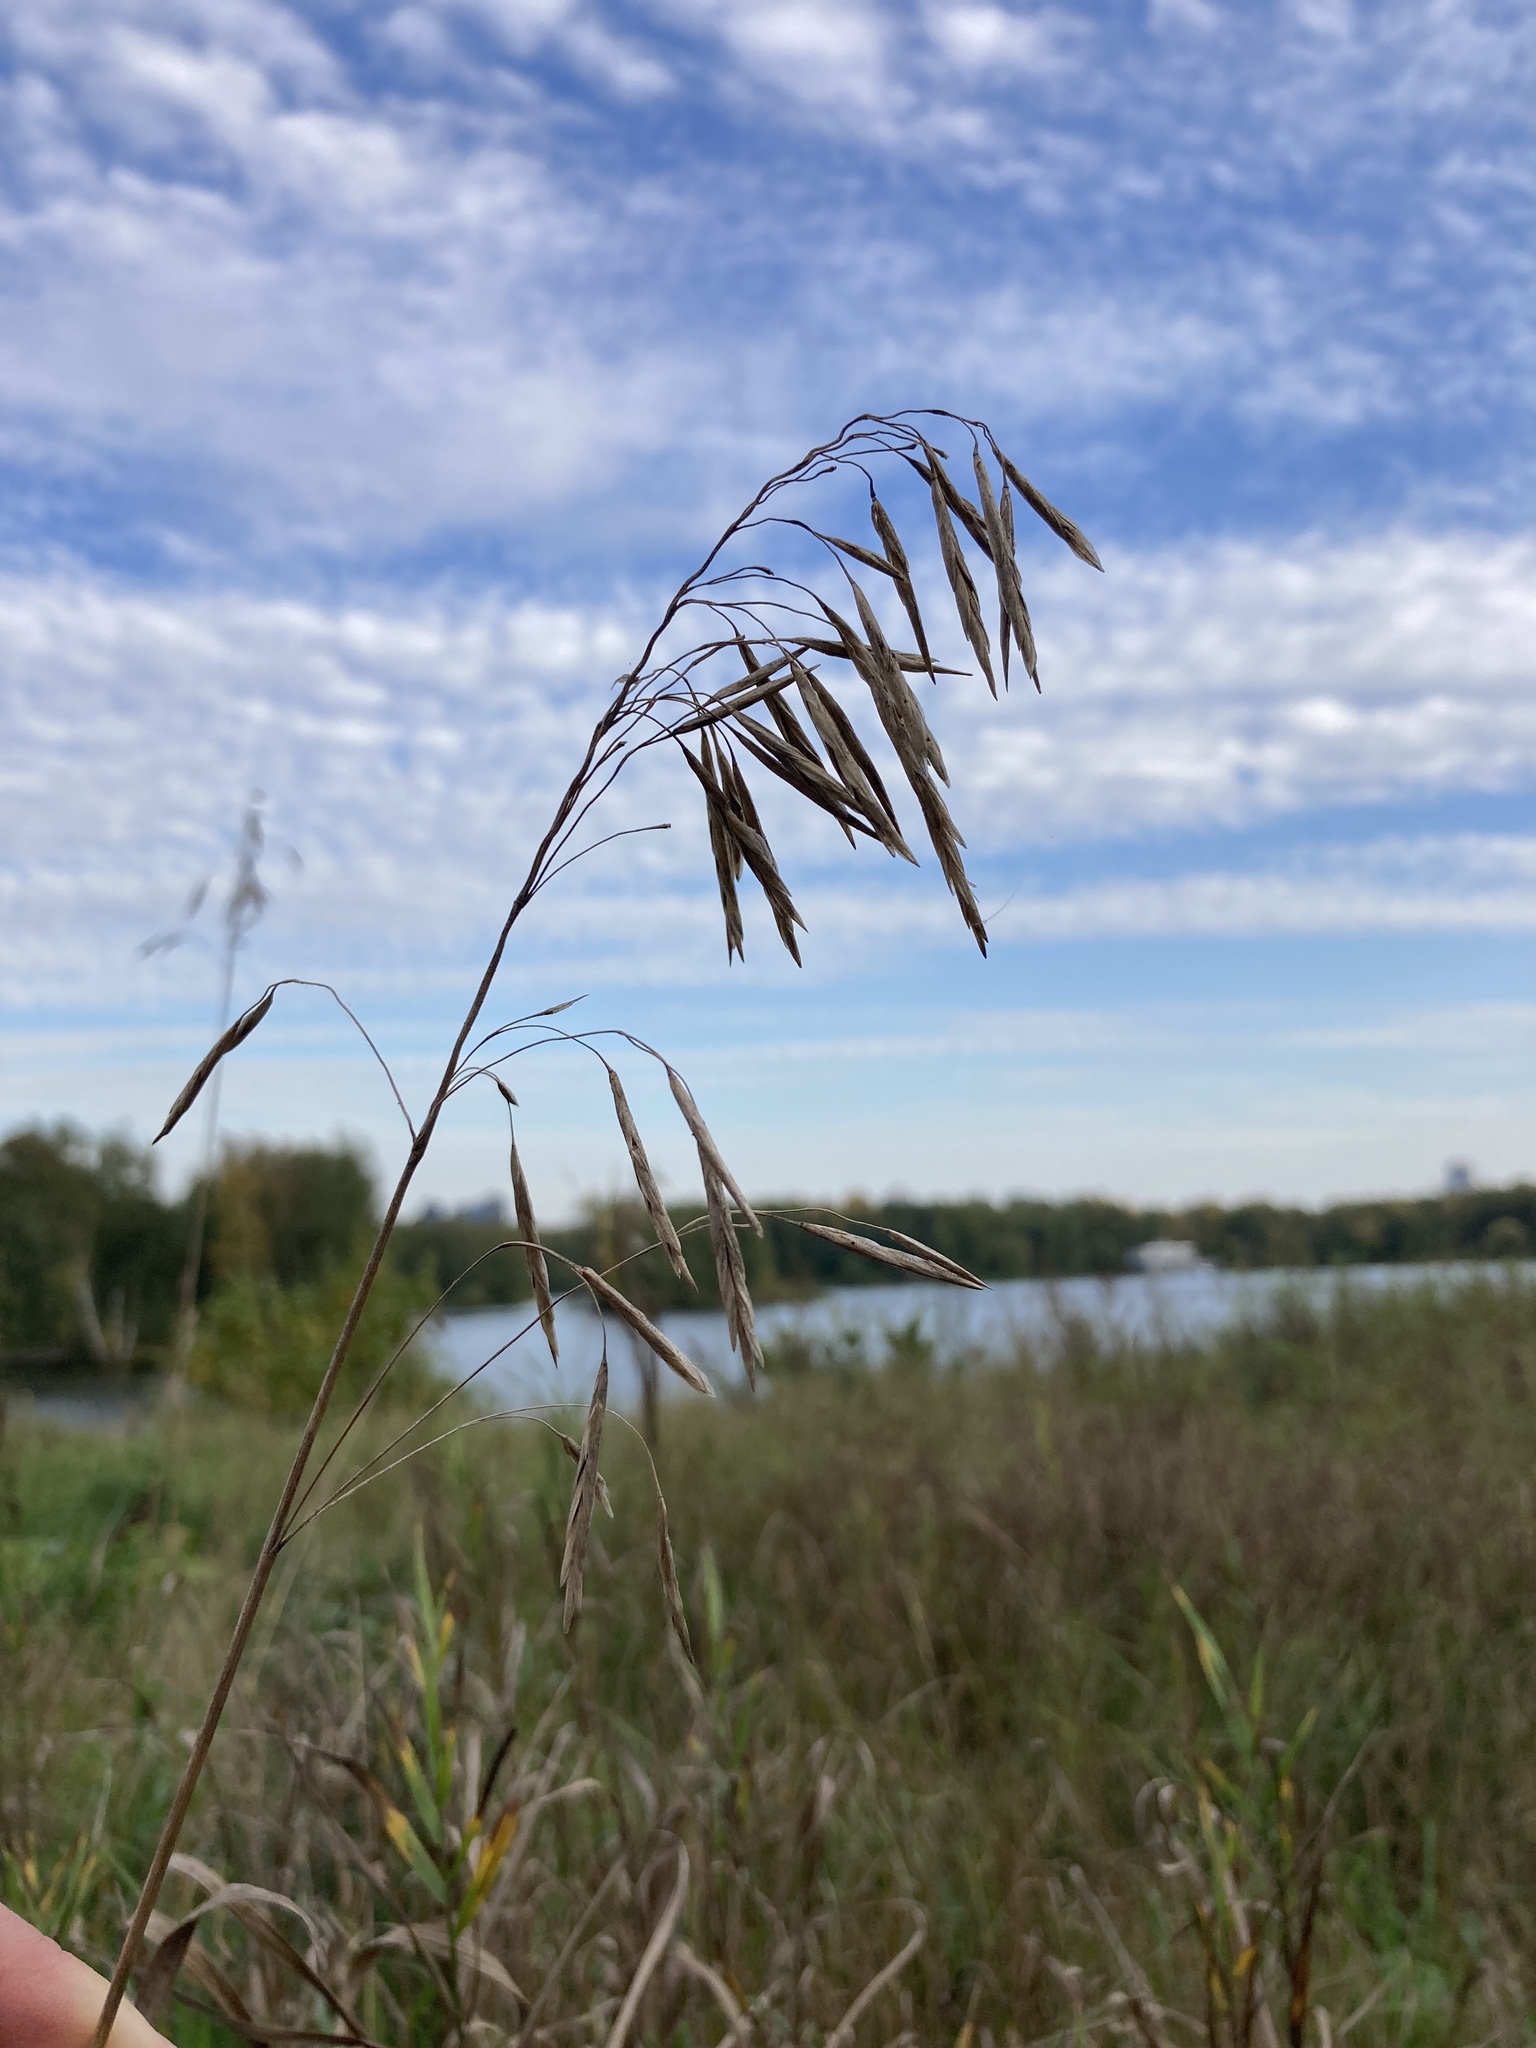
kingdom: Plantae
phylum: Tracheophyta
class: Liliopsida
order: Poales
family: Poaceae
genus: Bromus
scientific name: Bromus inermis
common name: Smooth brome
